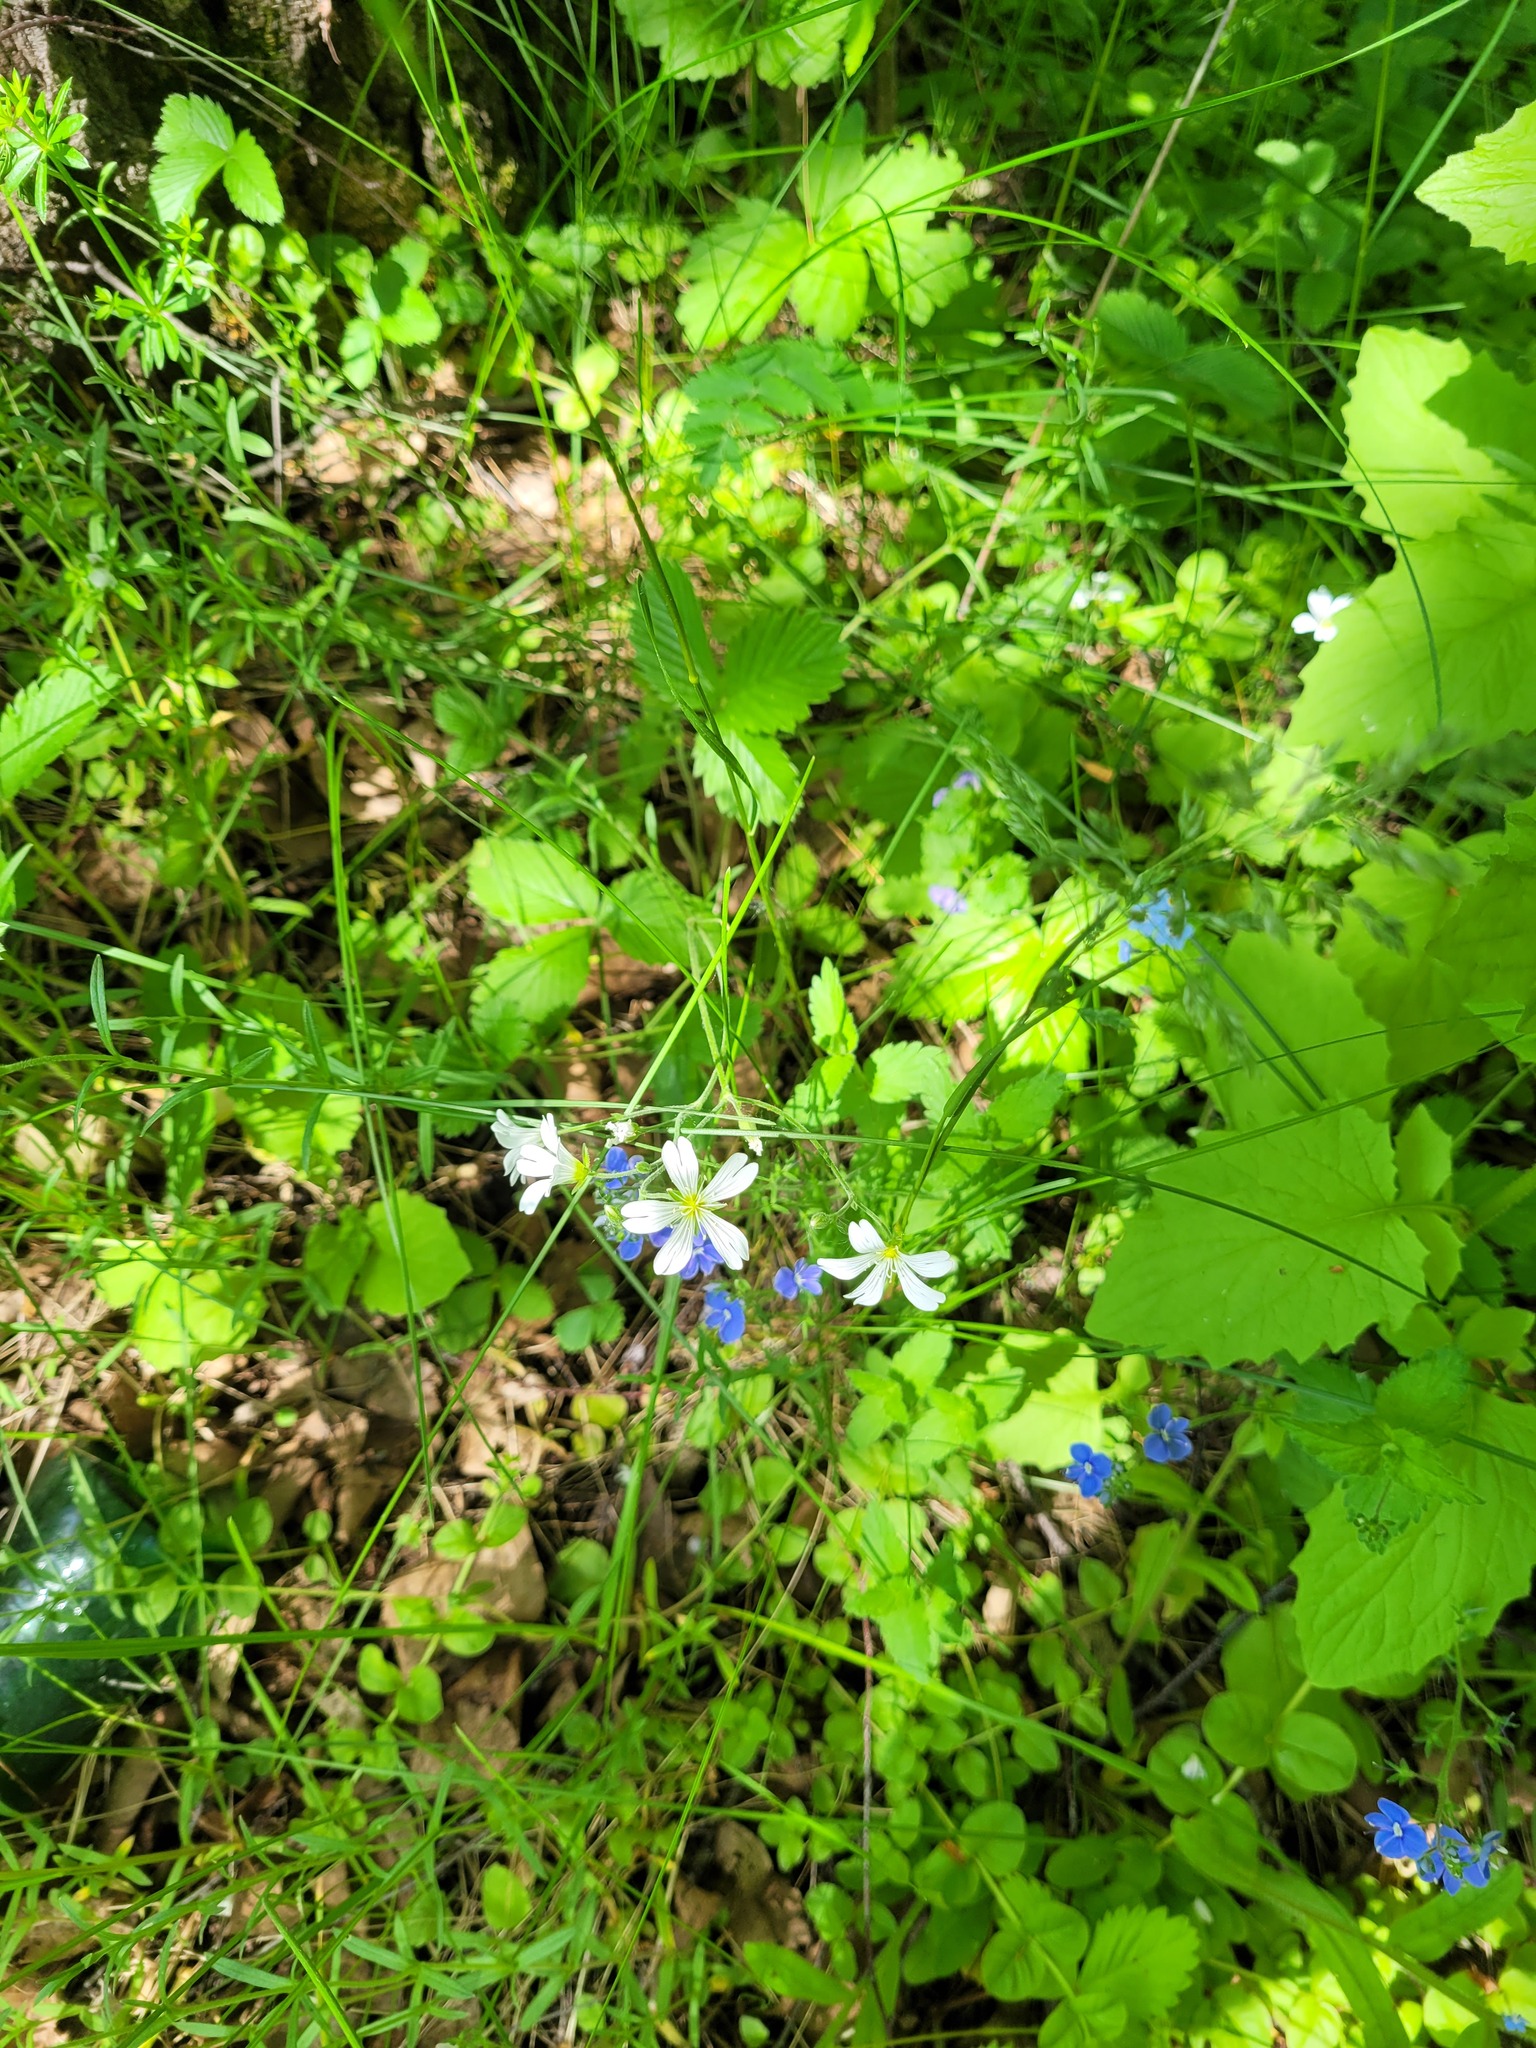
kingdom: Plantae
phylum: Tracheophyta
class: Magnoliopsida
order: Caryophyllales
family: Caryophyllaceae
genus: Cerastium
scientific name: Cerastium arvense
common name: Field mouse-ear
